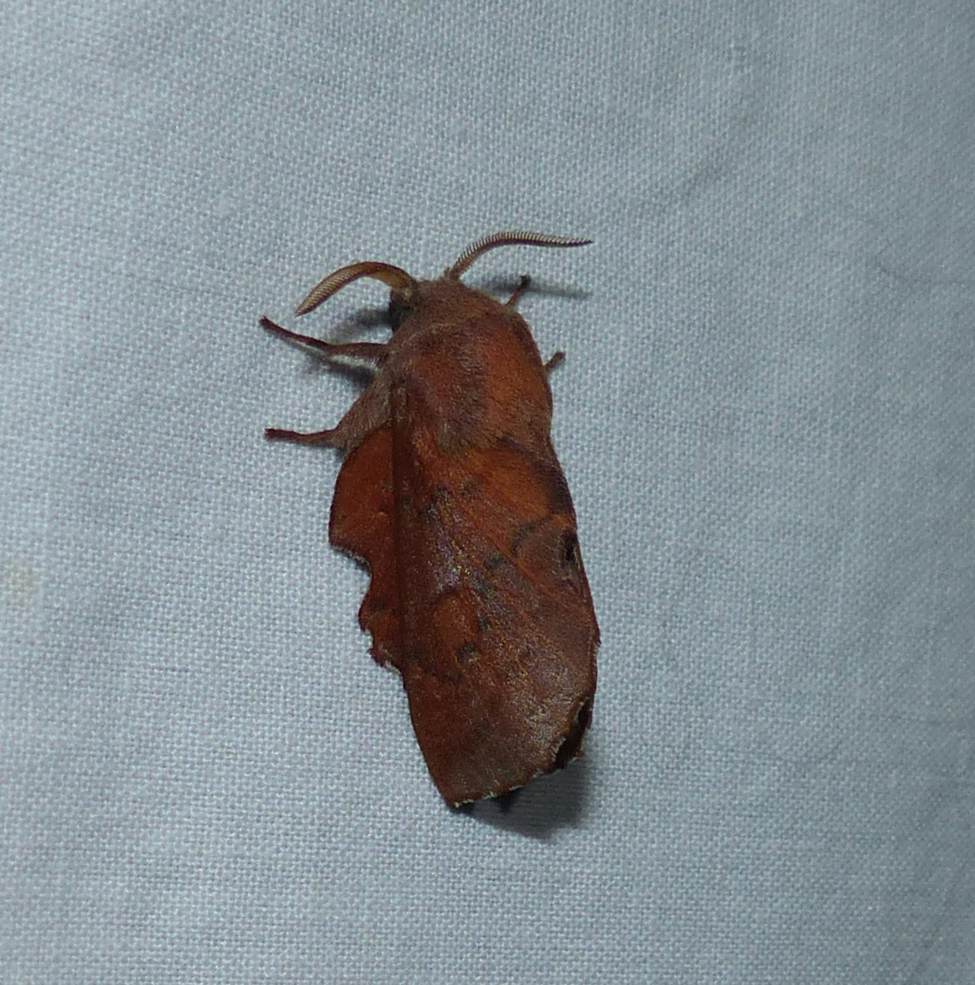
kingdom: Animalia
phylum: Arthropoda
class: Insecta
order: Lepidoptera
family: Lasiocampidae
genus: Phyllodesma
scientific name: Phyllodesma americana
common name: American lappet moth
